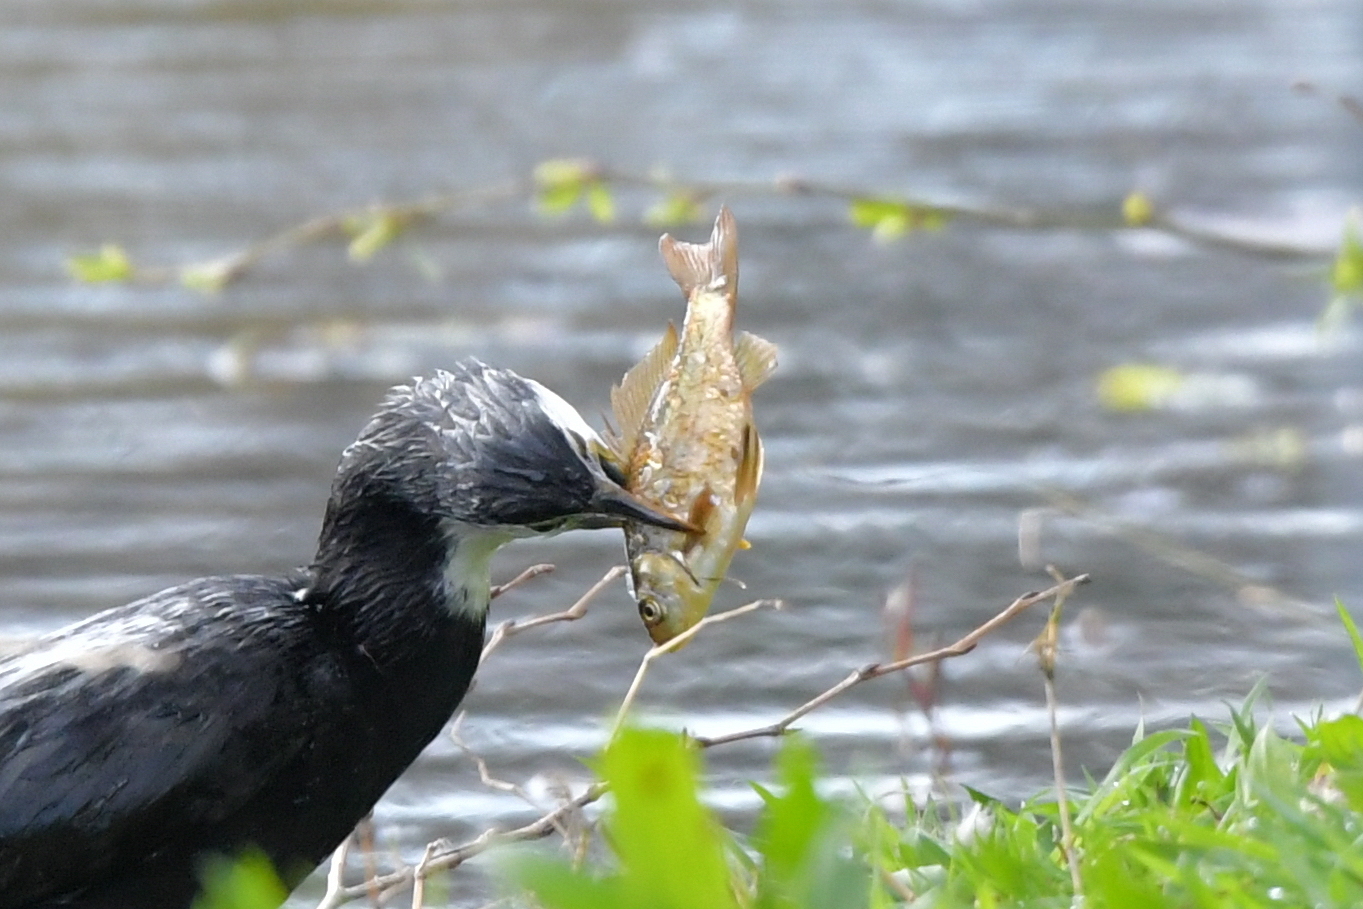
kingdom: Animalia
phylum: Chordata
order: Cypriniformes
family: Cyprinidae
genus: Carassius
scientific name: Carassius auratus
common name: Goldfish
